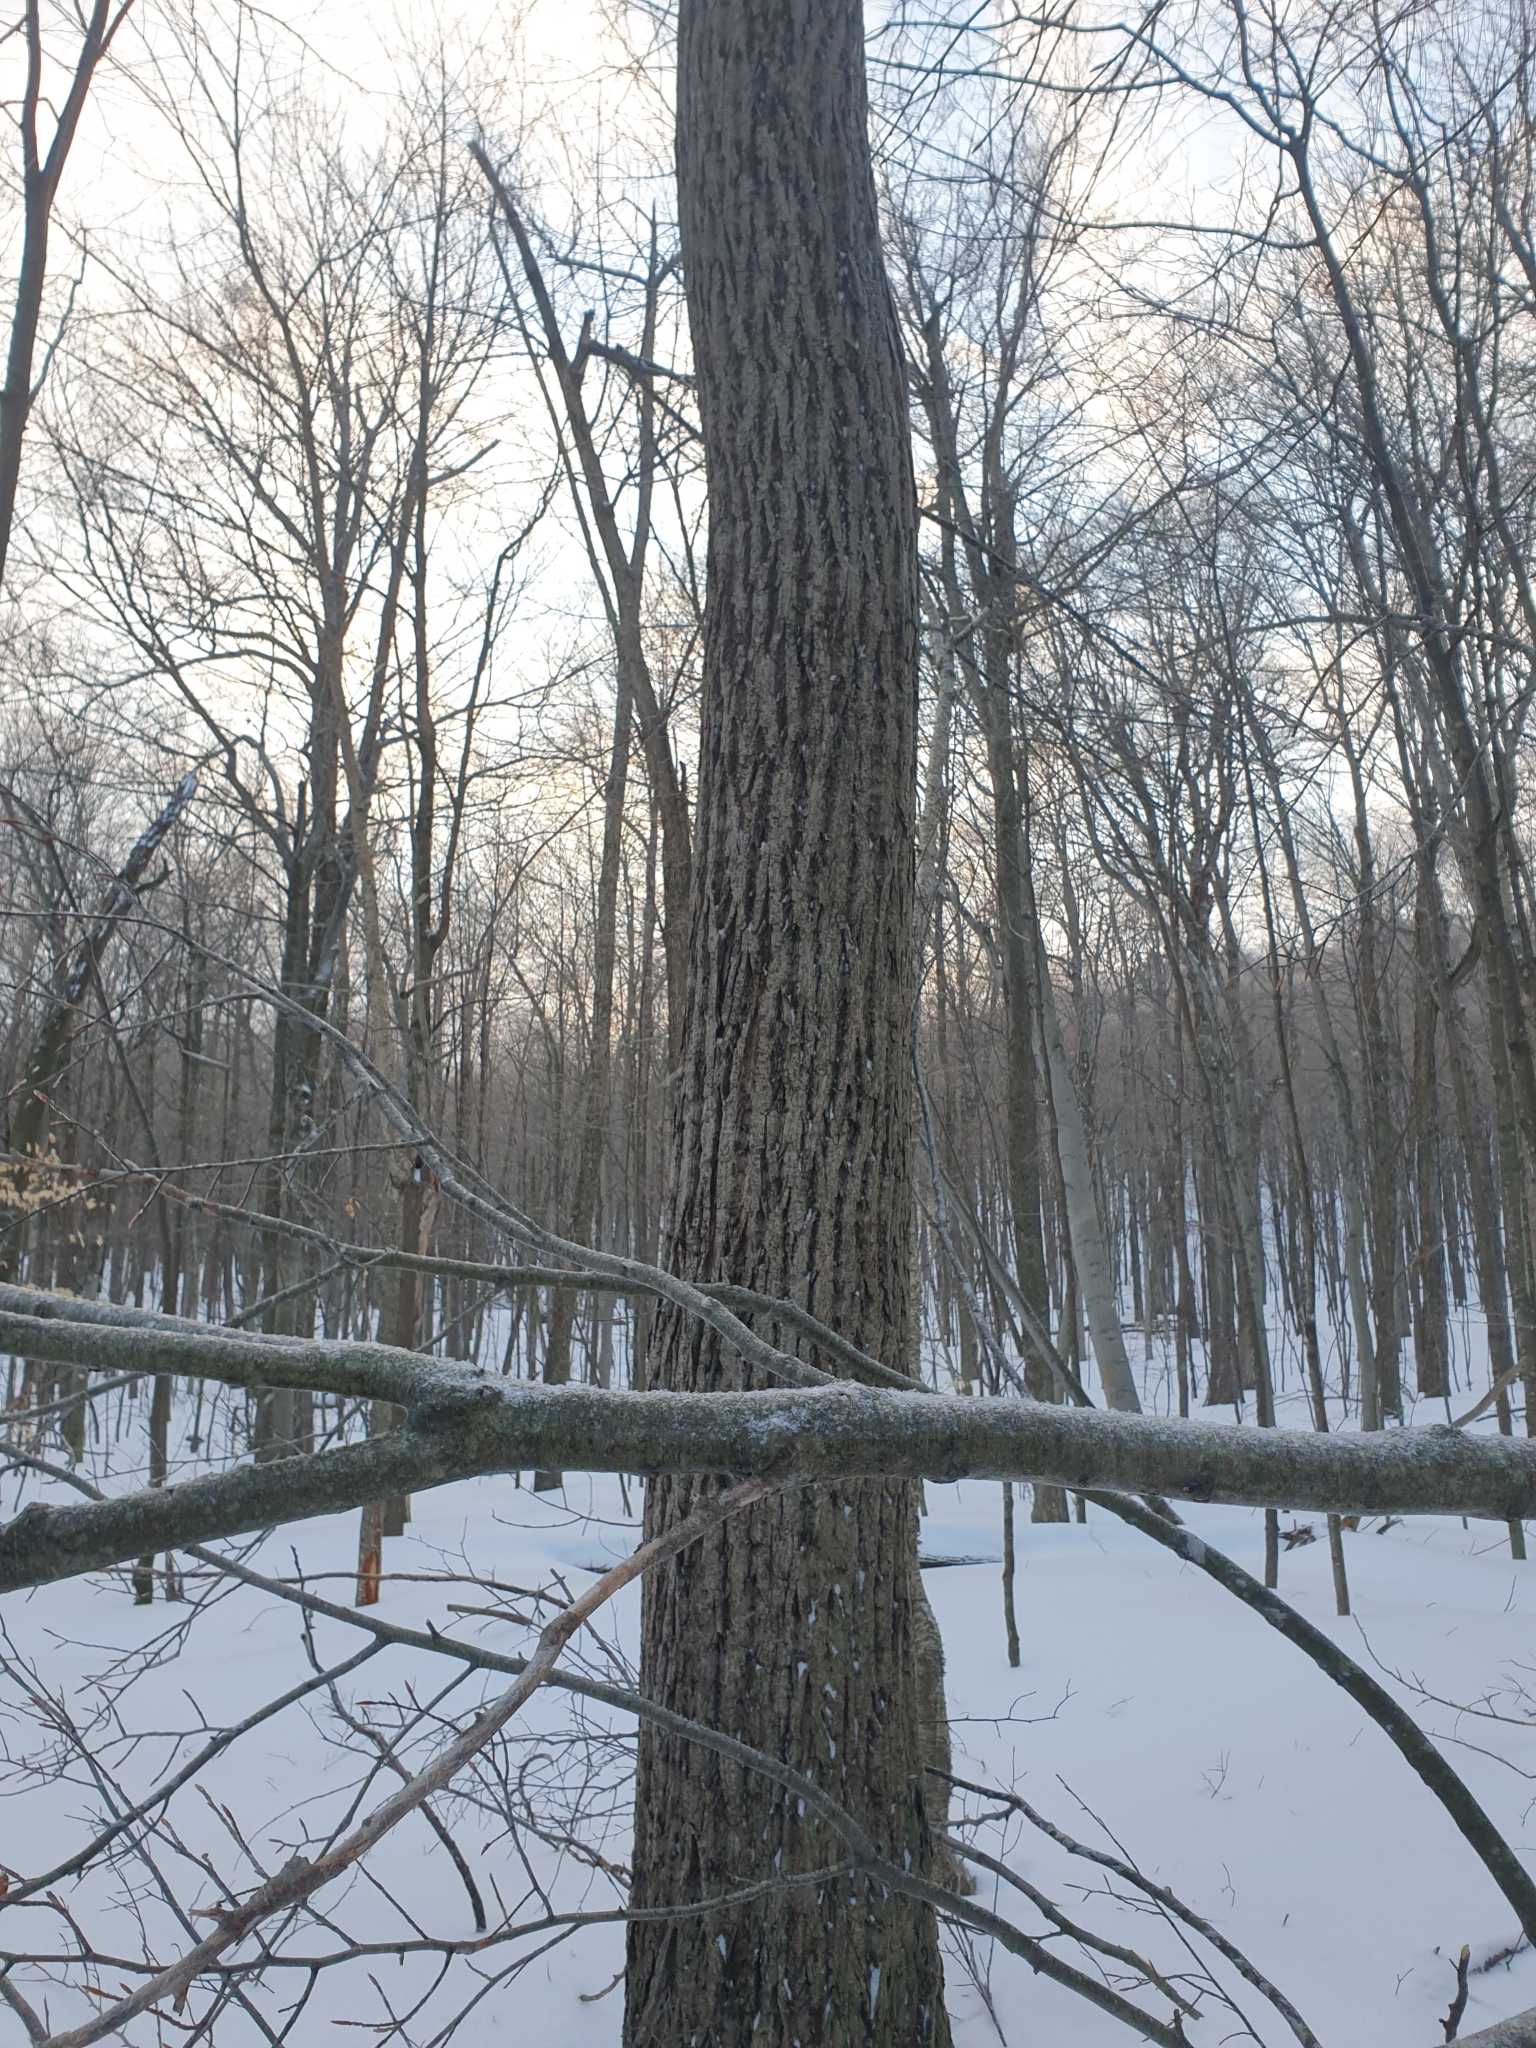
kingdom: Plantae
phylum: Tracheophyta
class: Magnoliopsida
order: Fagales
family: Juglandaceae
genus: Juglans
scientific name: Juglans cinerea
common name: Butternut
